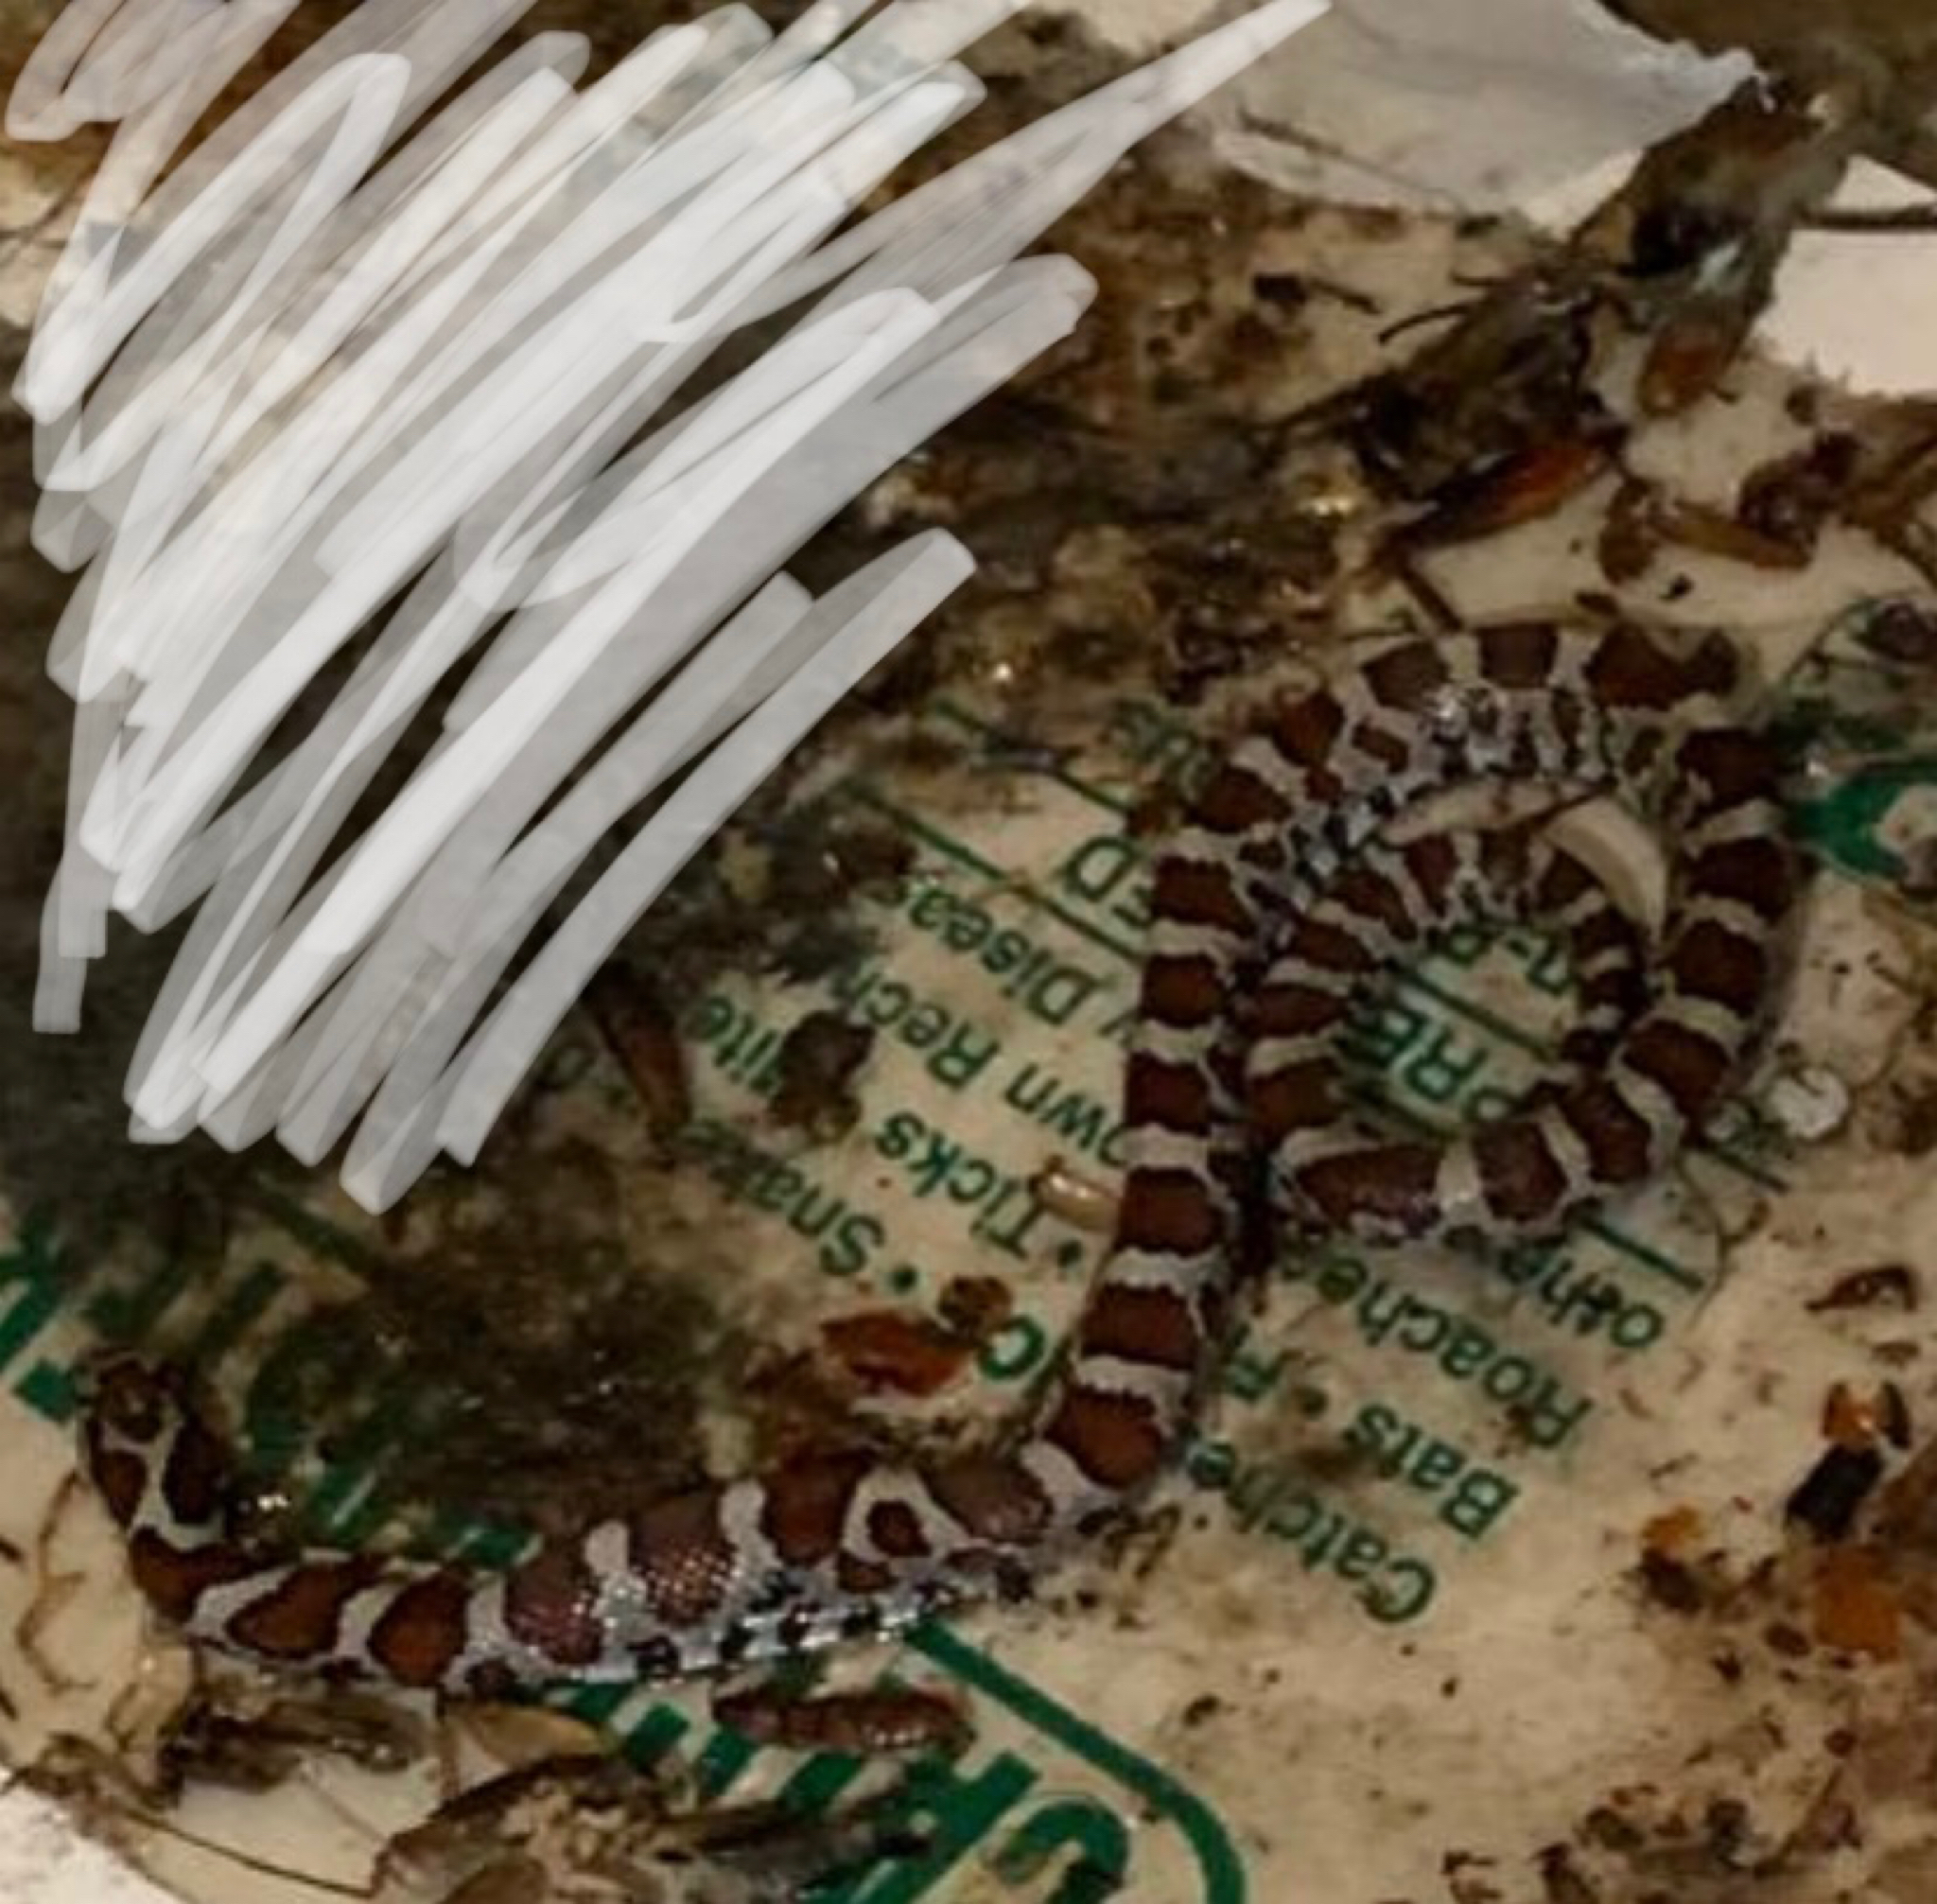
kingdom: Animalia
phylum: Chordata
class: Squamata
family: Colubridae
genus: Lampropeltis
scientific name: Lampropeltis triangulum
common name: Eastern milksnake
